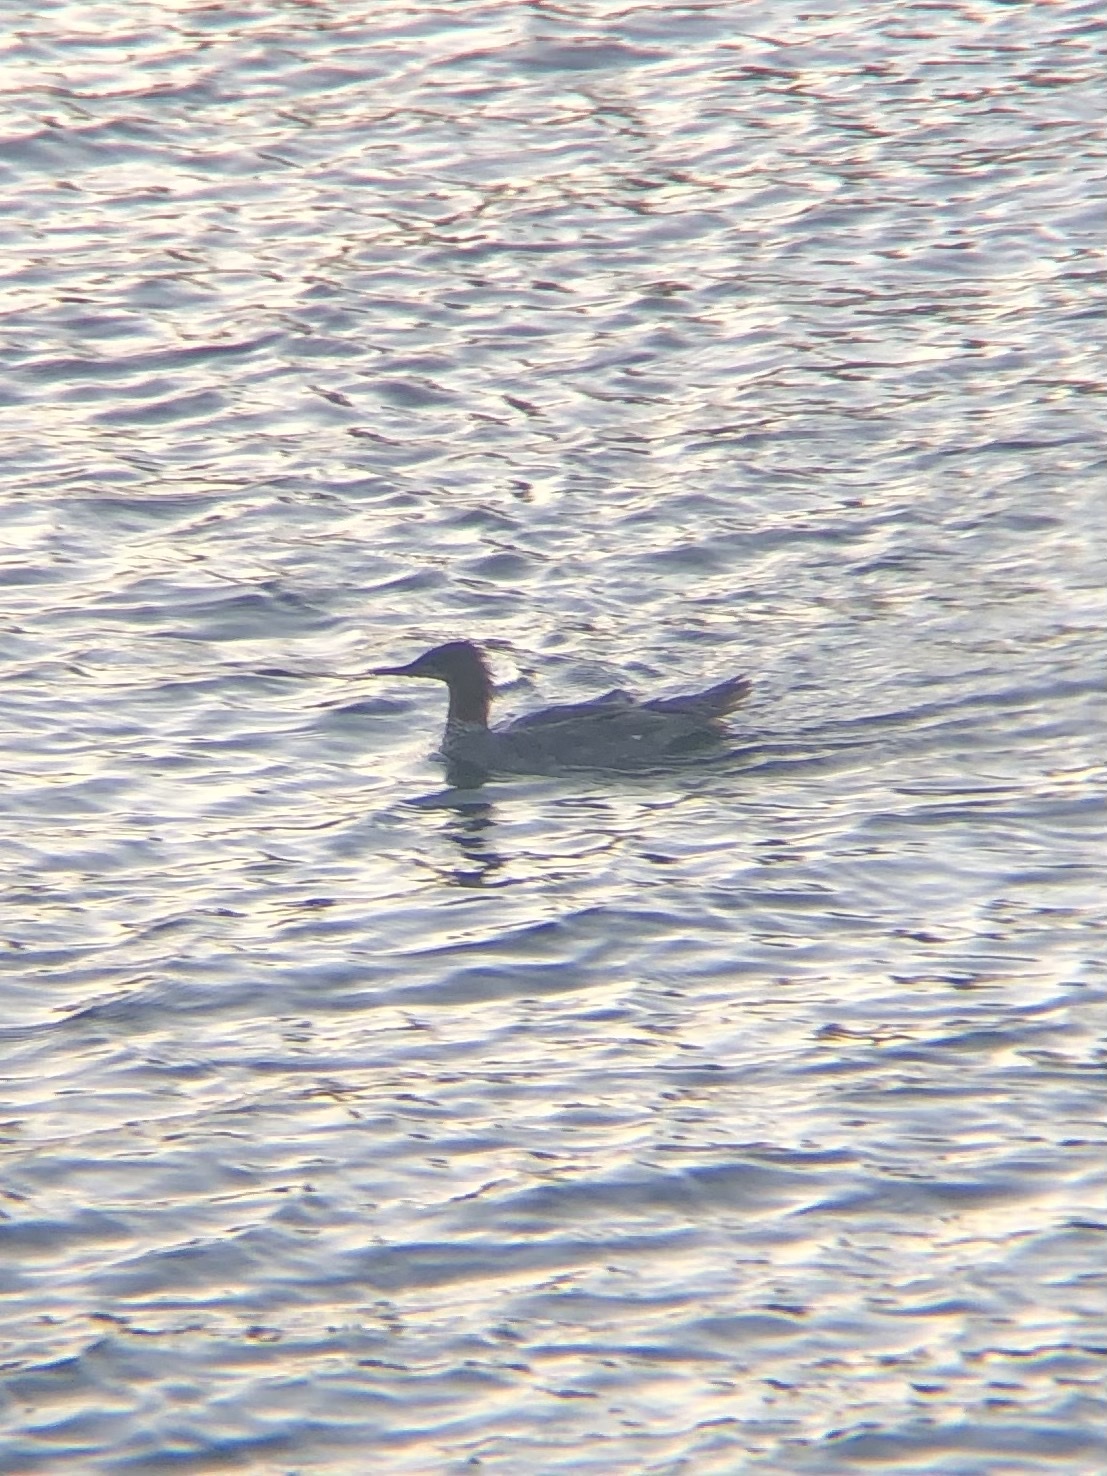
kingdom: Animalia
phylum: Chordata
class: Aves
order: Anseriformes
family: Anatidae
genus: Mergus
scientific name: Mergus merganser
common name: Common merganser
